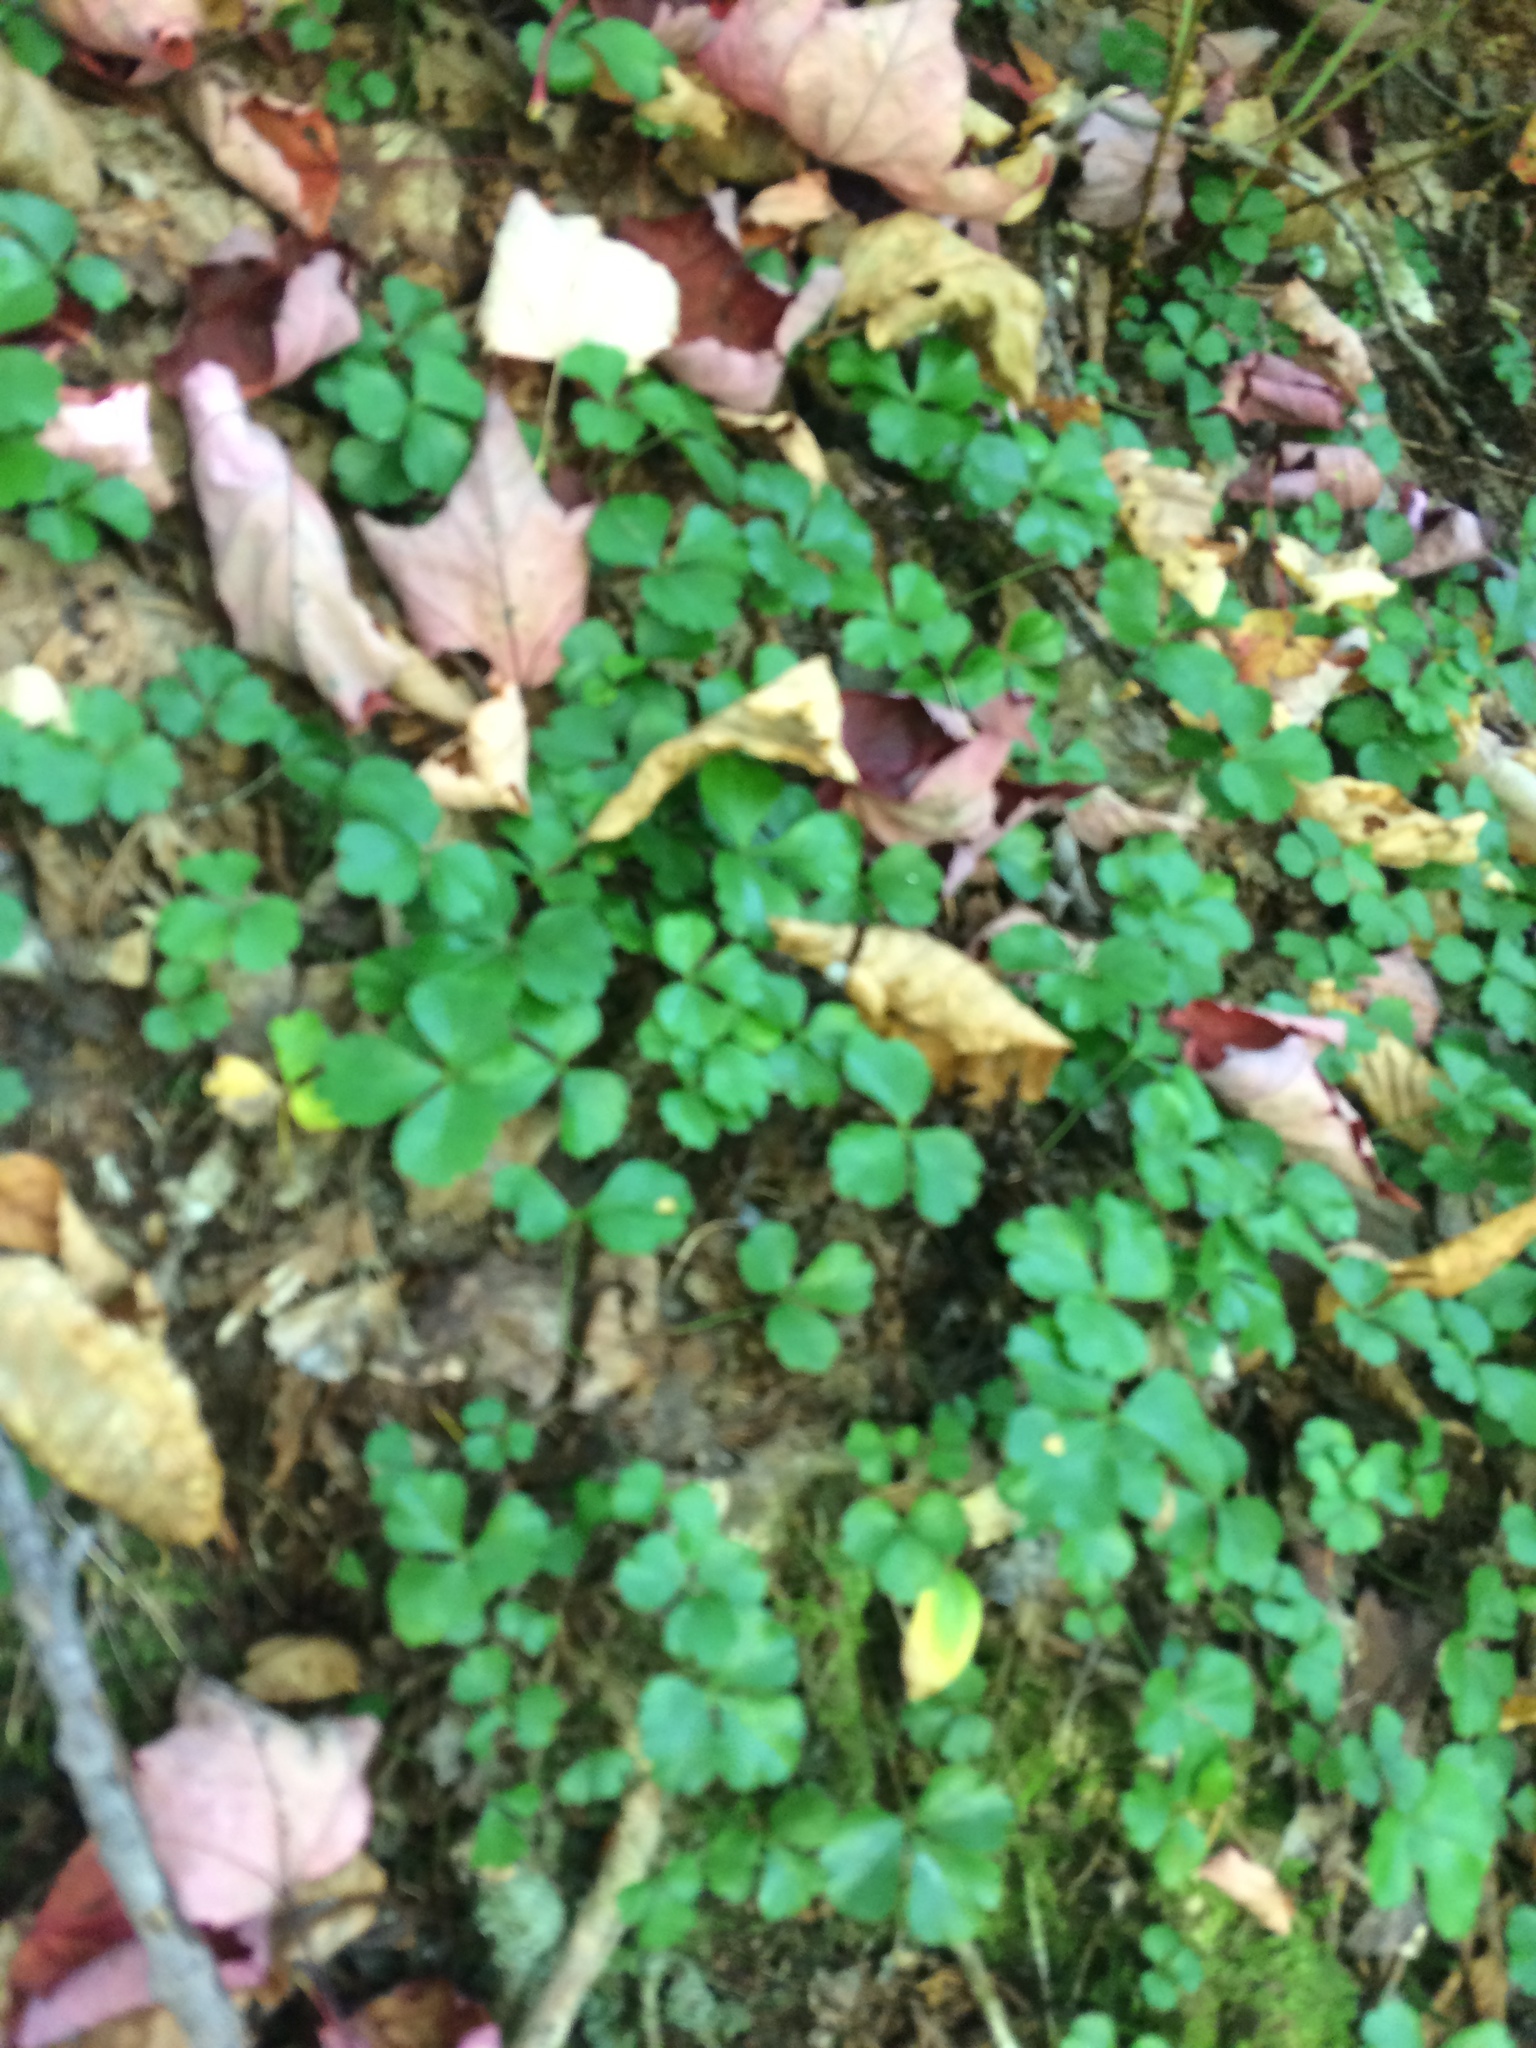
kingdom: Plantae
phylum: Tracheophyta
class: Magnoliopsida
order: Ranunculales
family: Ranunculaceae
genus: Coptis
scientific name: Coptis trifolia
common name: Canker-root
